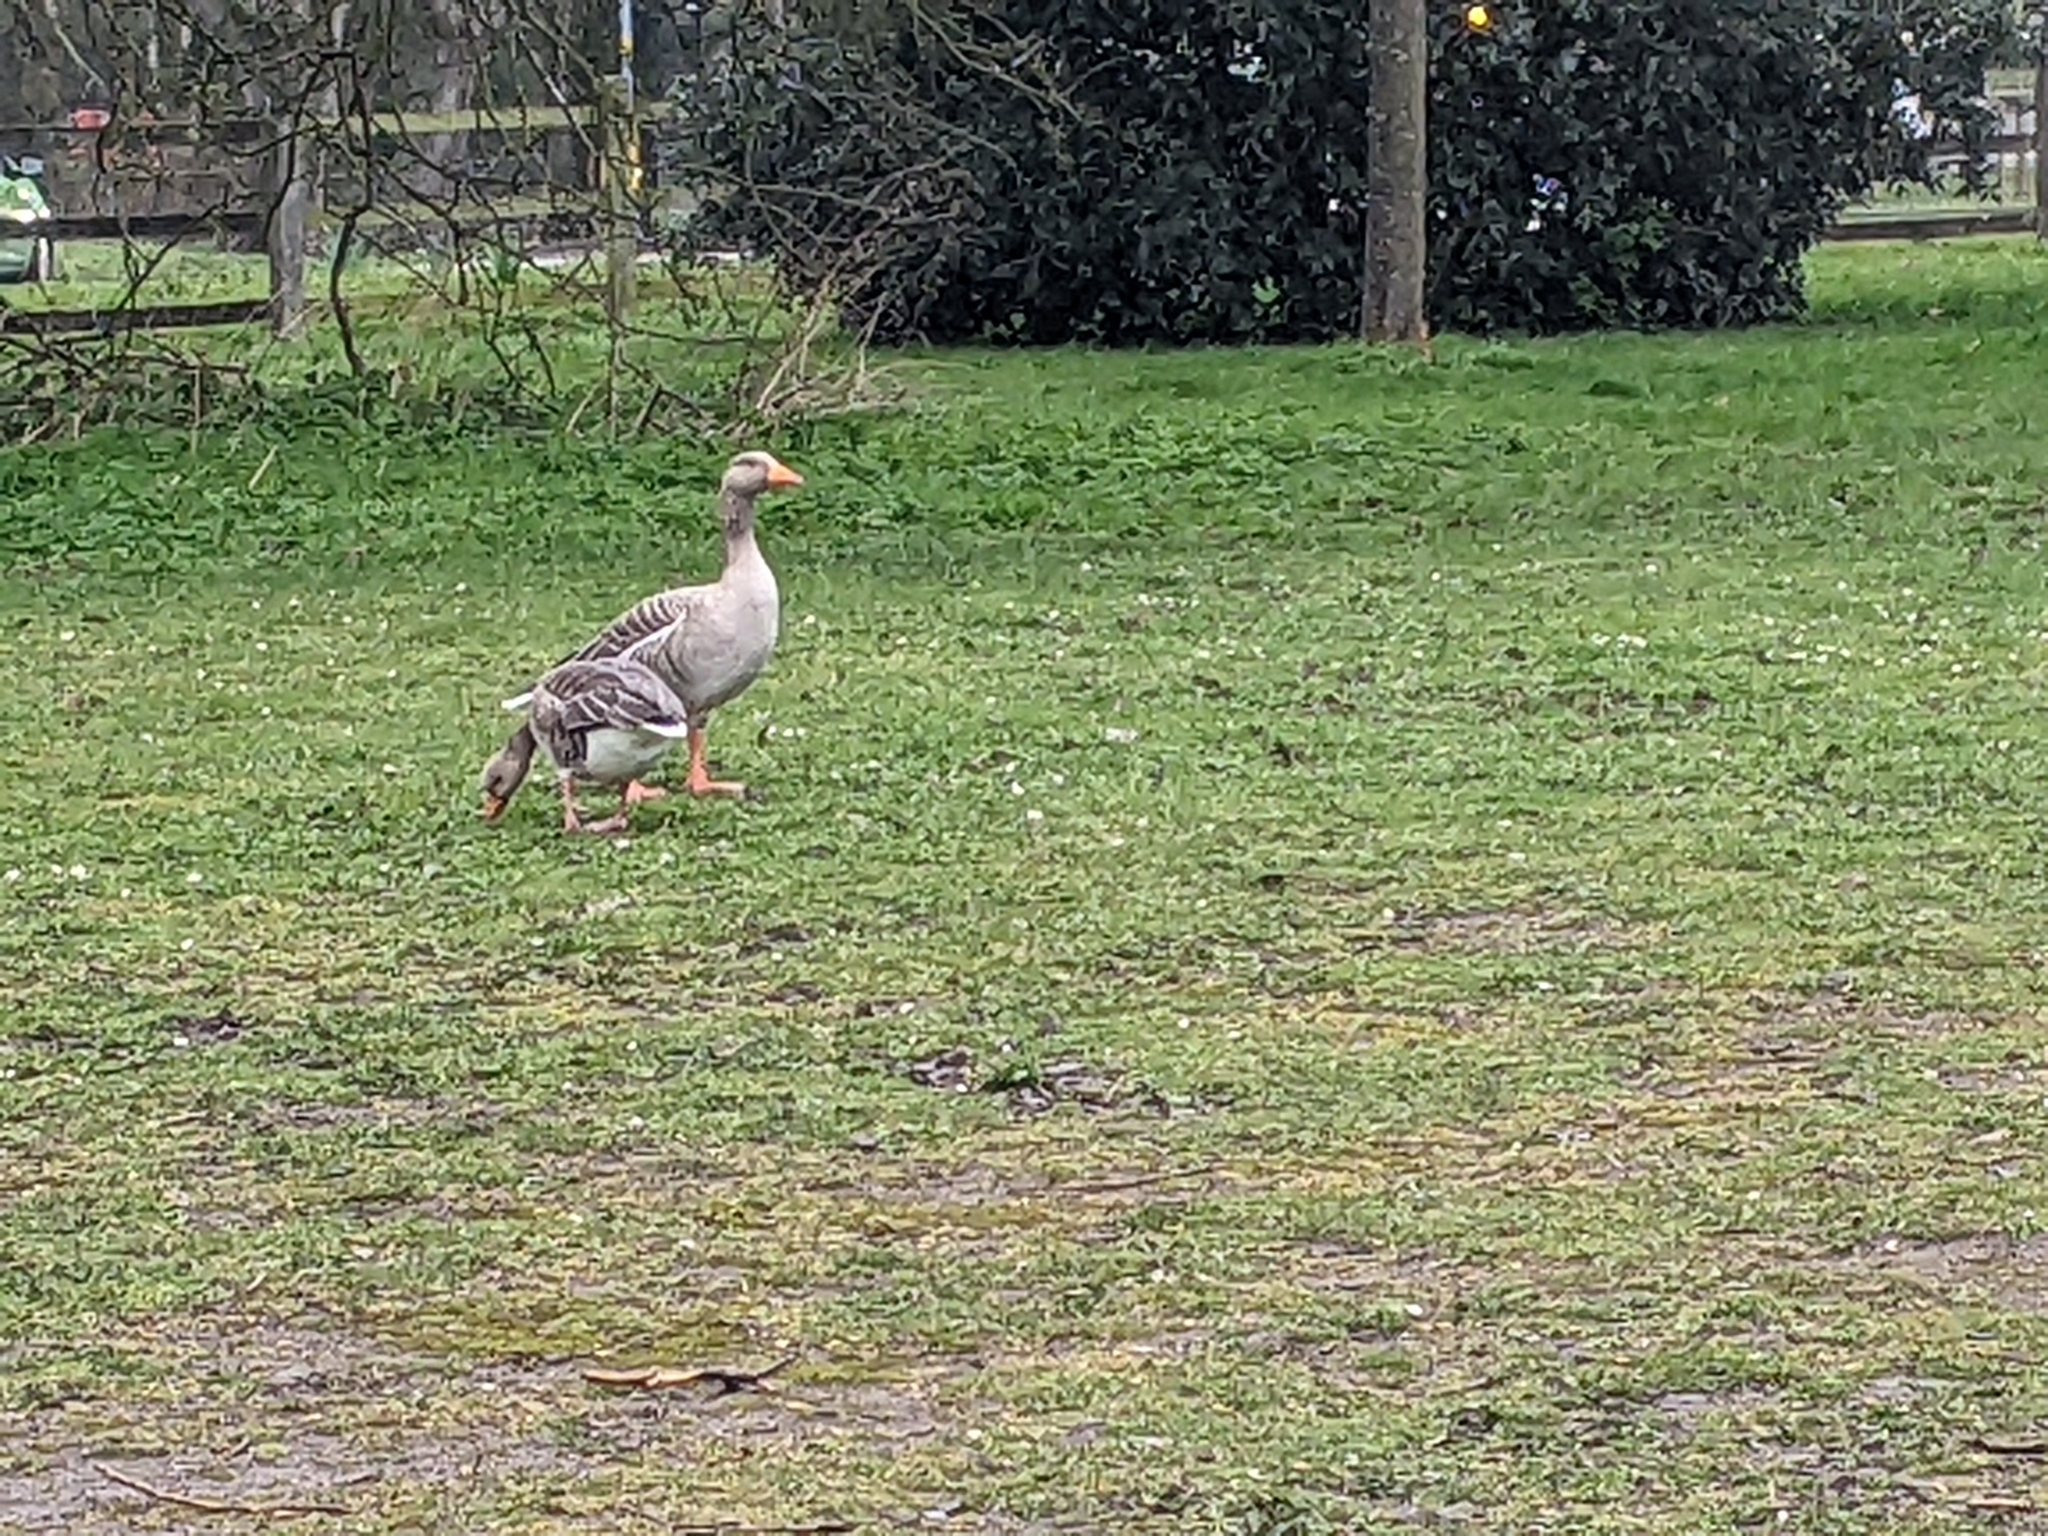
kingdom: Animalia
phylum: Chordata
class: Aves
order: Anseriformes
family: Anatidae
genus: Anser
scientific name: Anser anser
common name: Greylag goose
